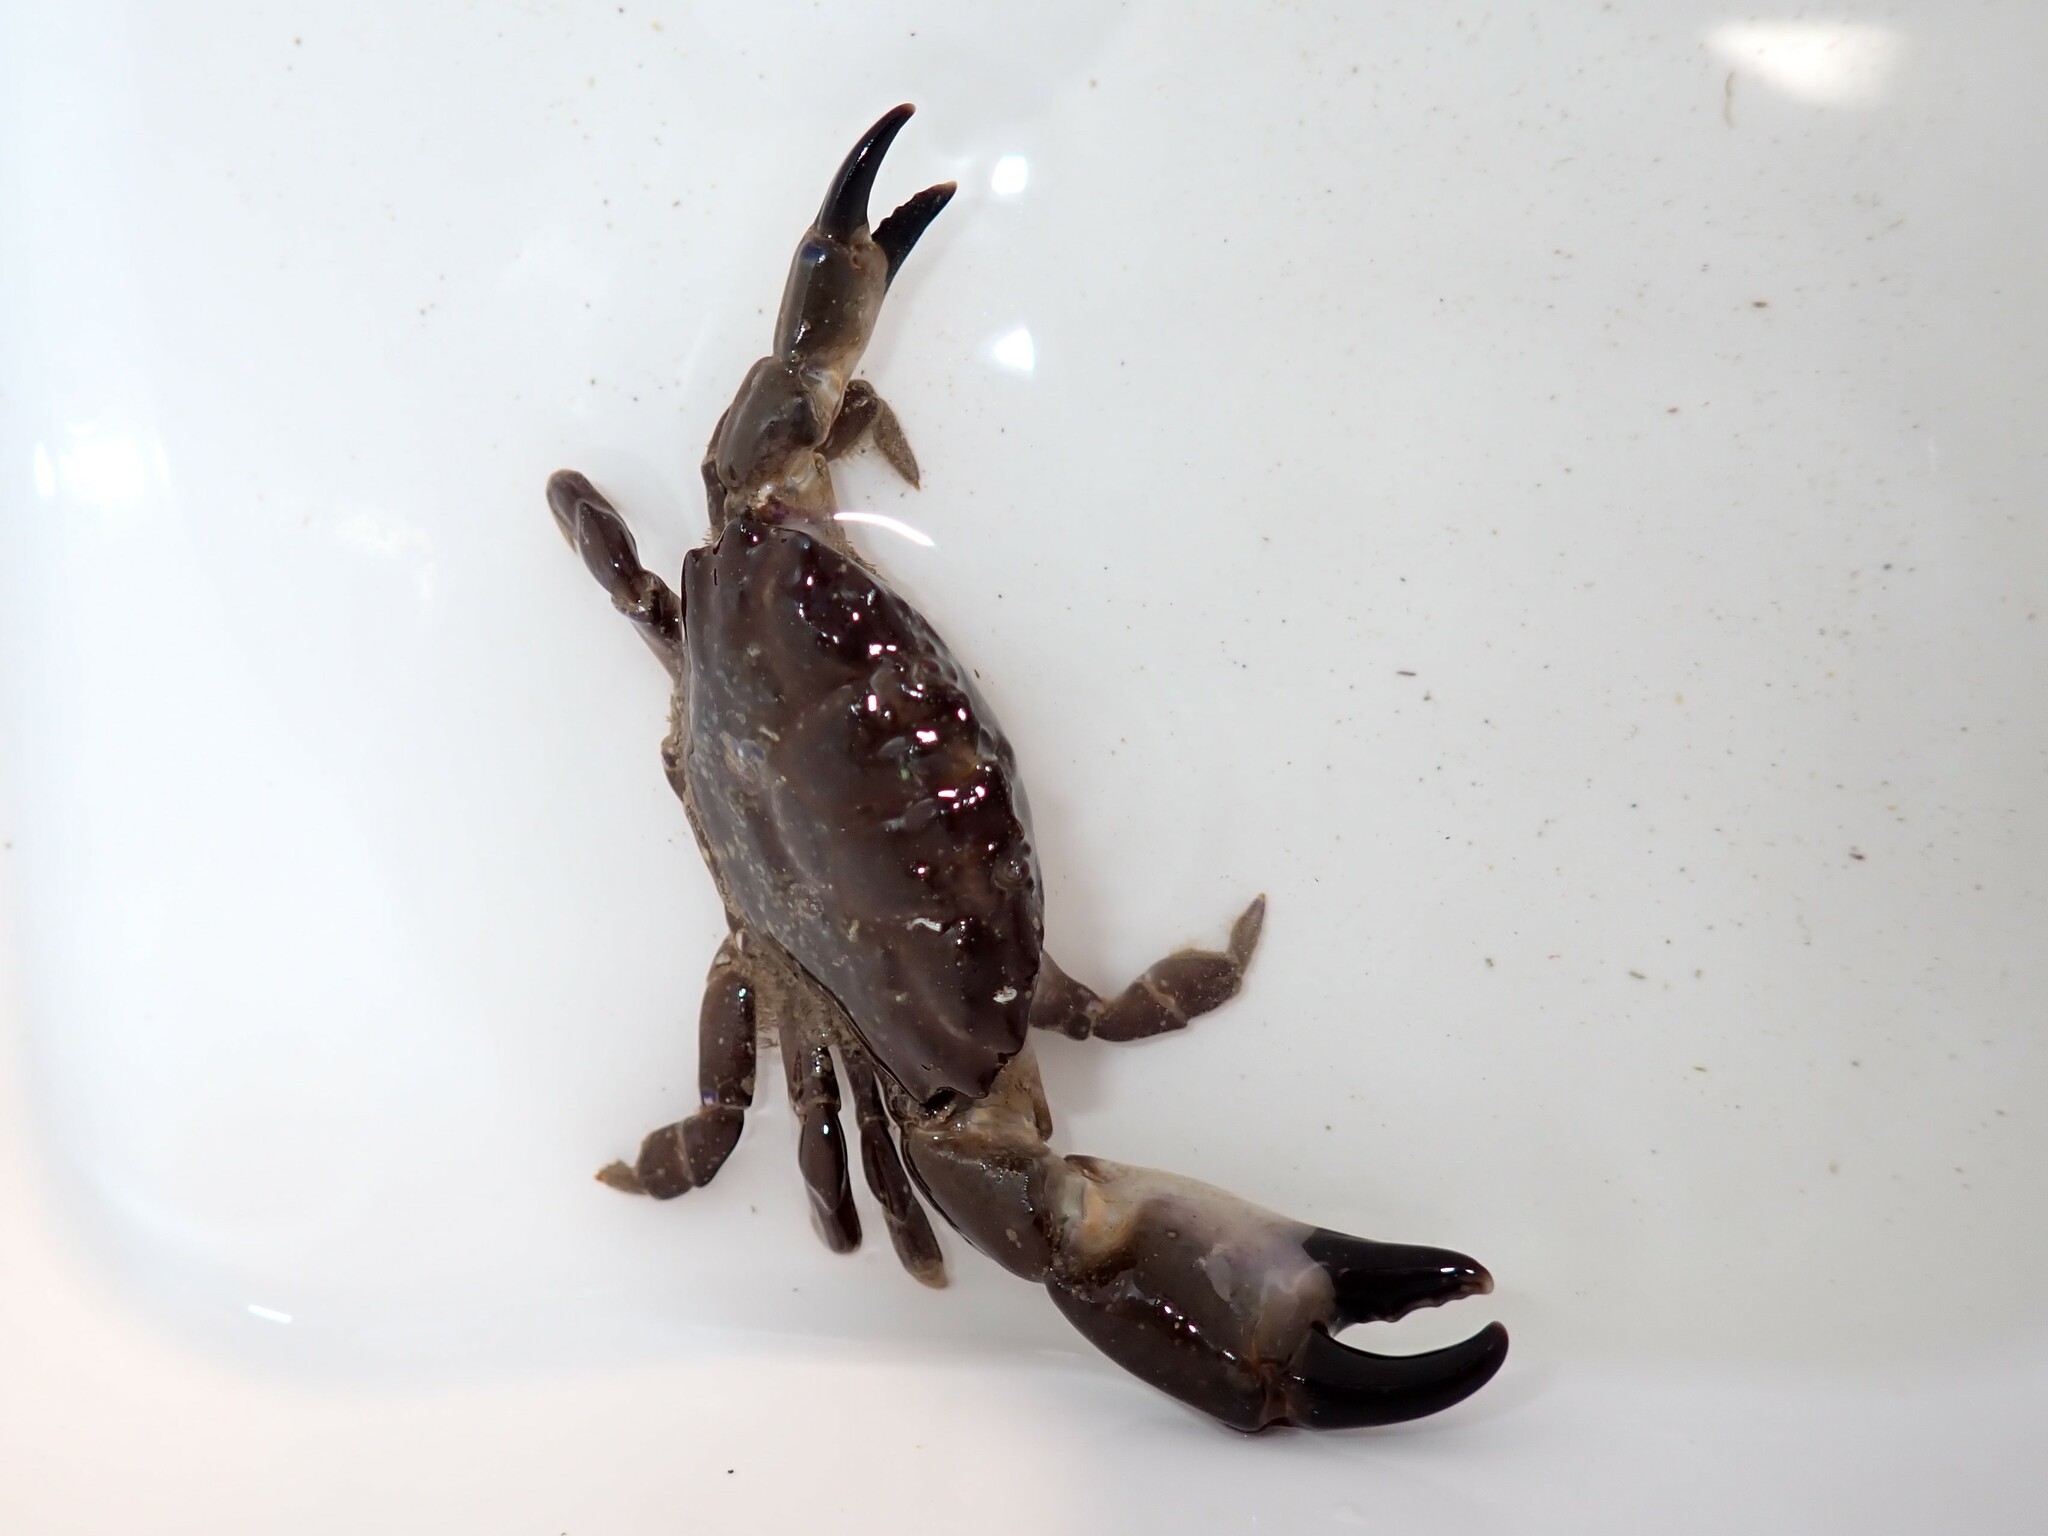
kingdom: Animalia
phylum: Arthropoda
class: Malacostraca
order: Decapoda
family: Xanthidae
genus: Xantho
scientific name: Xantho hydrophilus
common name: Montagu's crab
